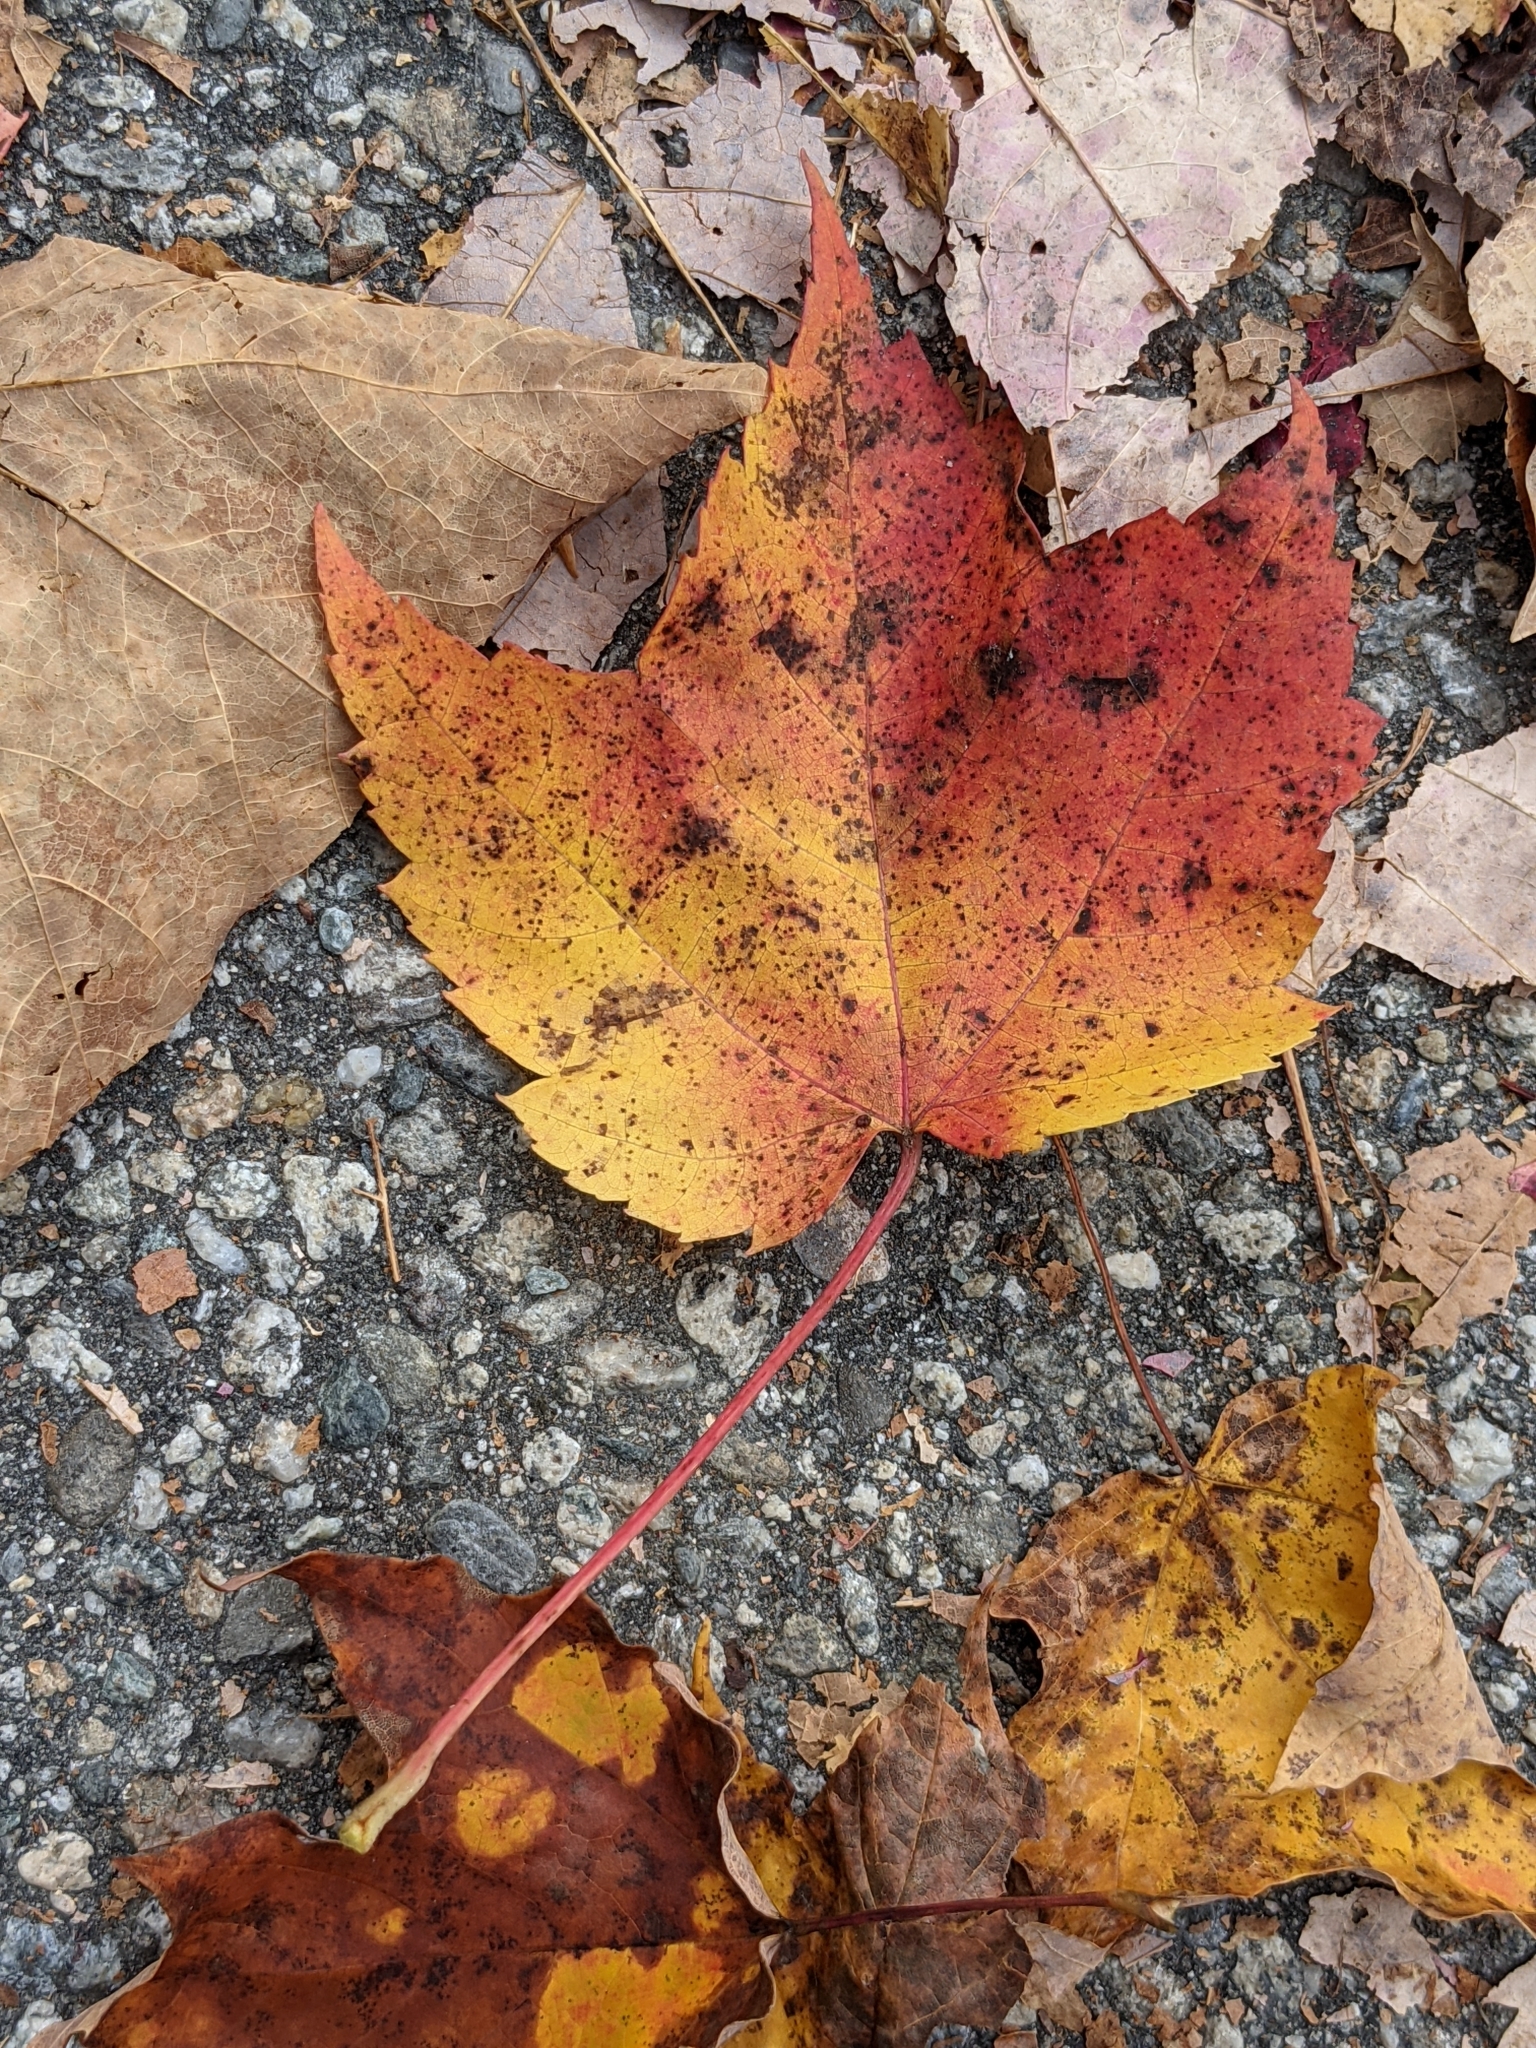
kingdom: Plantae
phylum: Tracheophyta
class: Magnoliopsida
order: Sapindales
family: Sapindaceae
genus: Acer
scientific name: Acer rubrum
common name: Red maple
